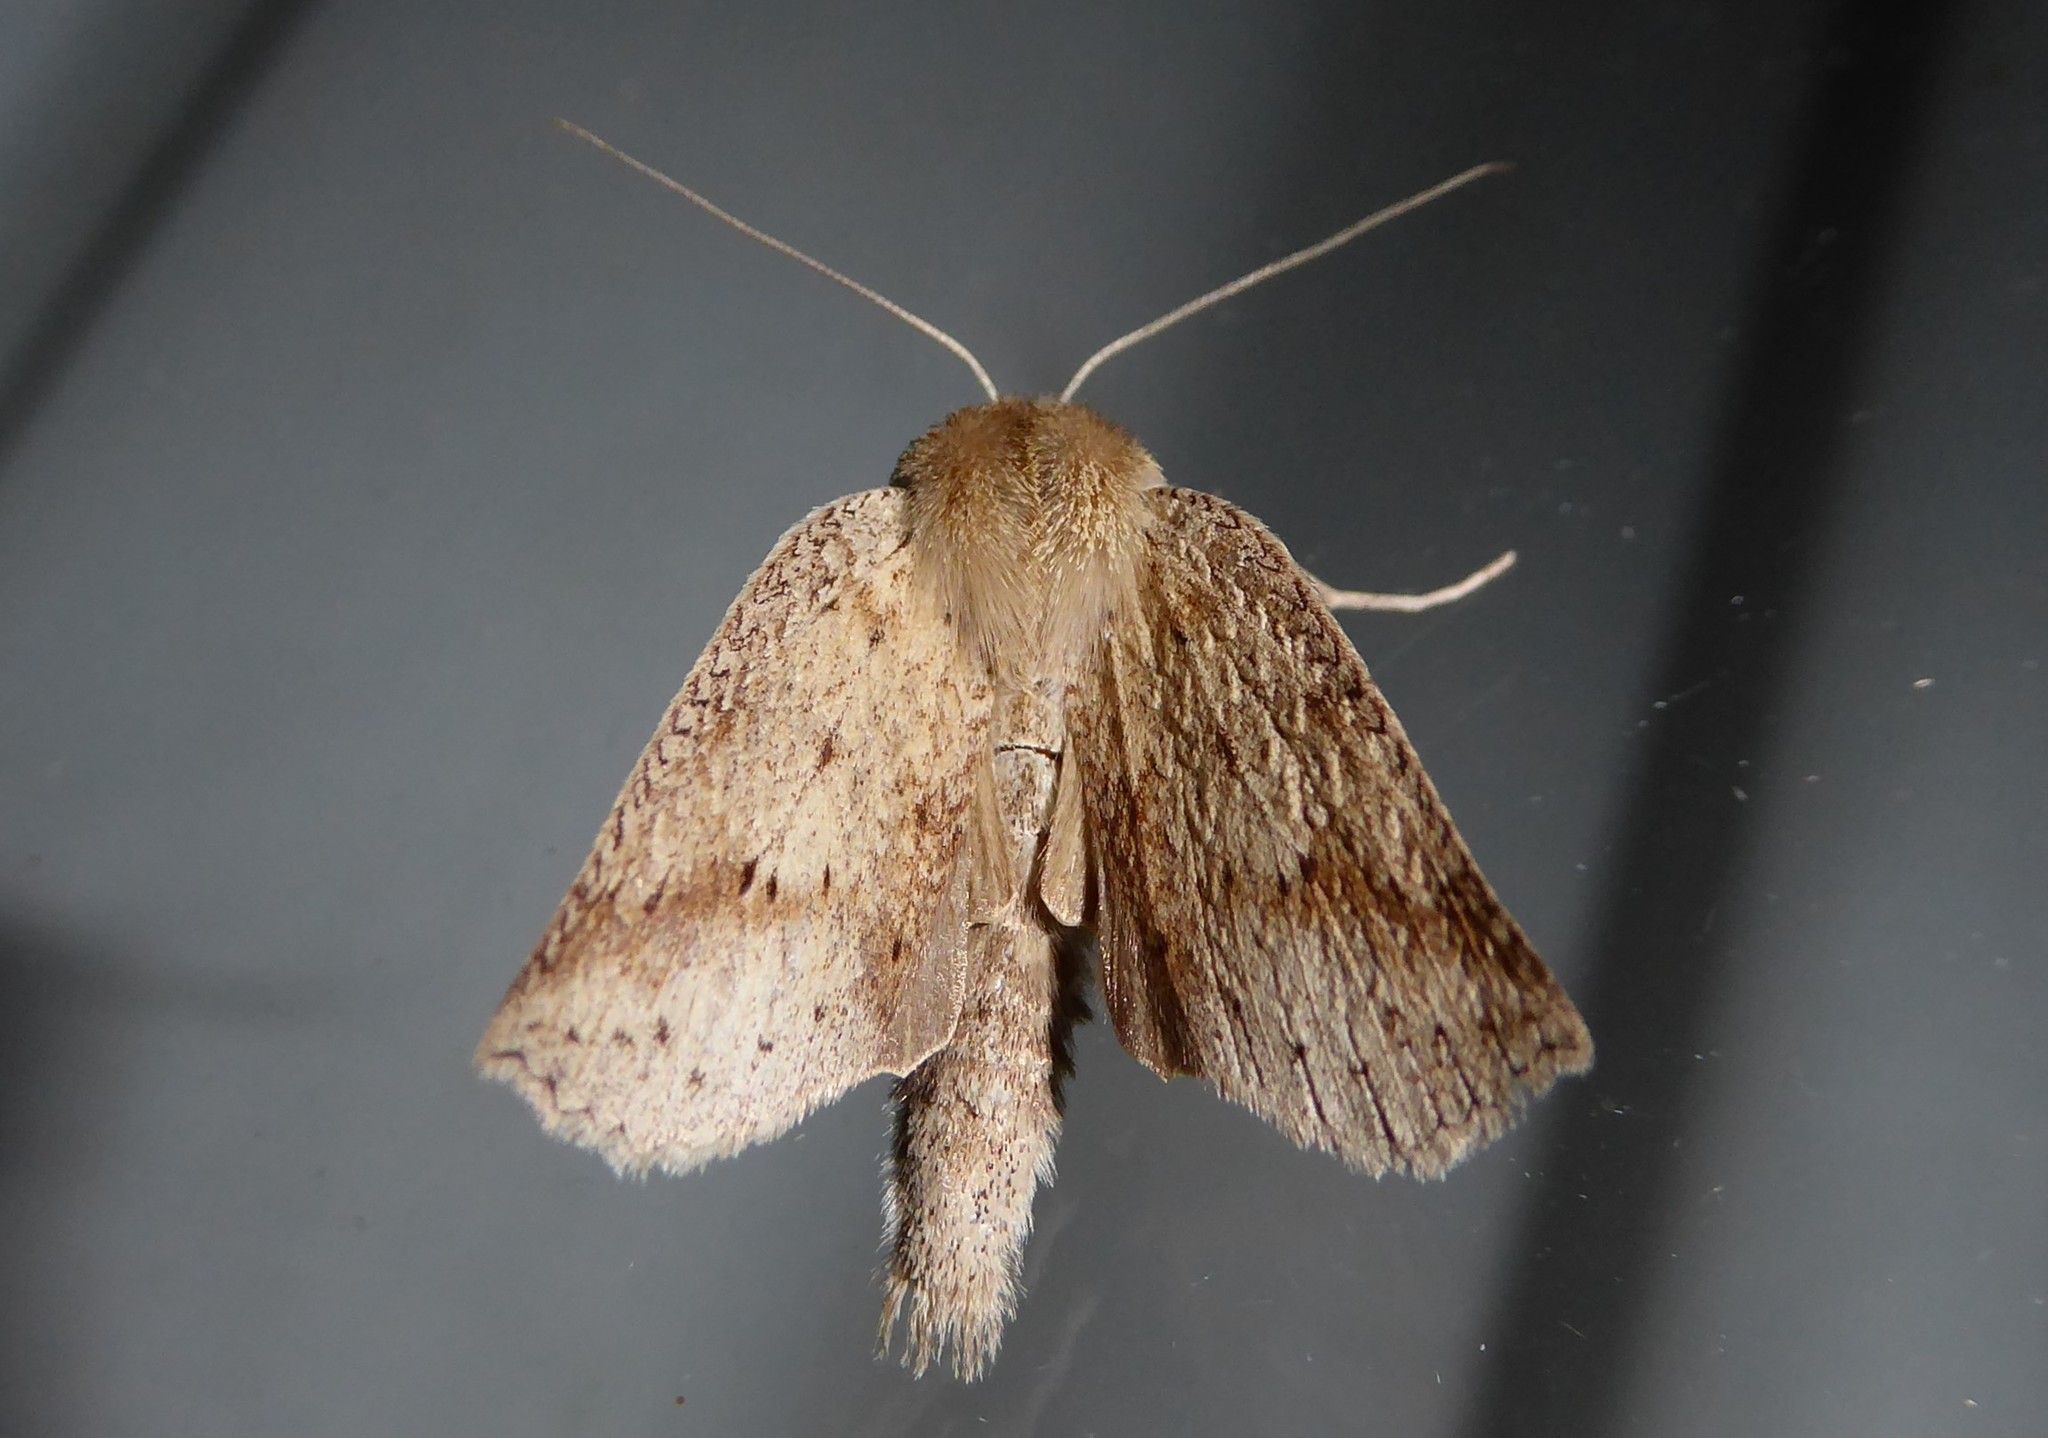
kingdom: Animalia
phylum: Arthropoda
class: Insecta
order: Lepidoptera
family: Geometridae
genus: Declana
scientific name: Declana leptomera
